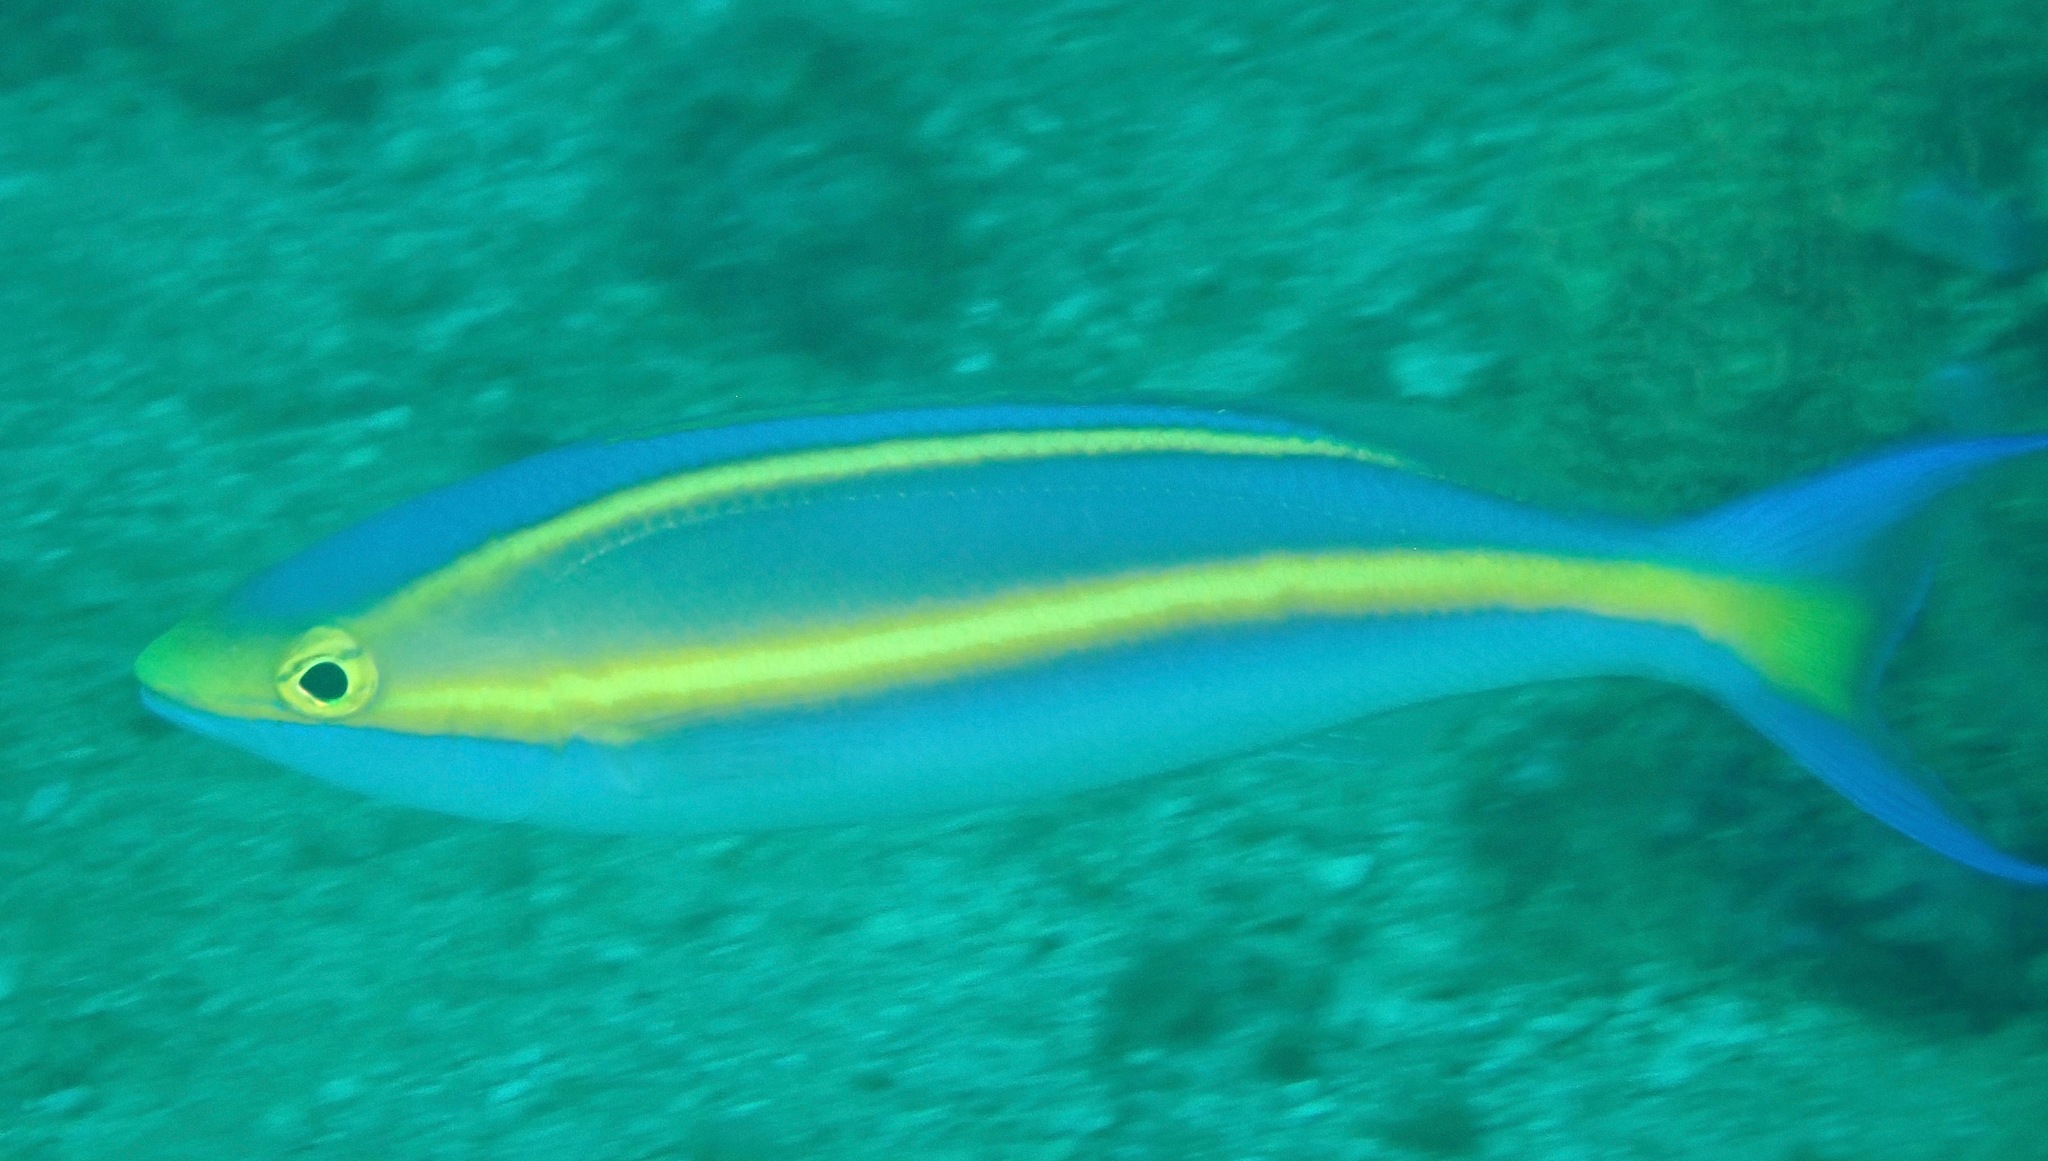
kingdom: Animalia
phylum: Chordata
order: Perciformes
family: Nemipteridae
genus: Pentapodus
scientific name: Pentapodus emeryii
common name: Double whiptail
